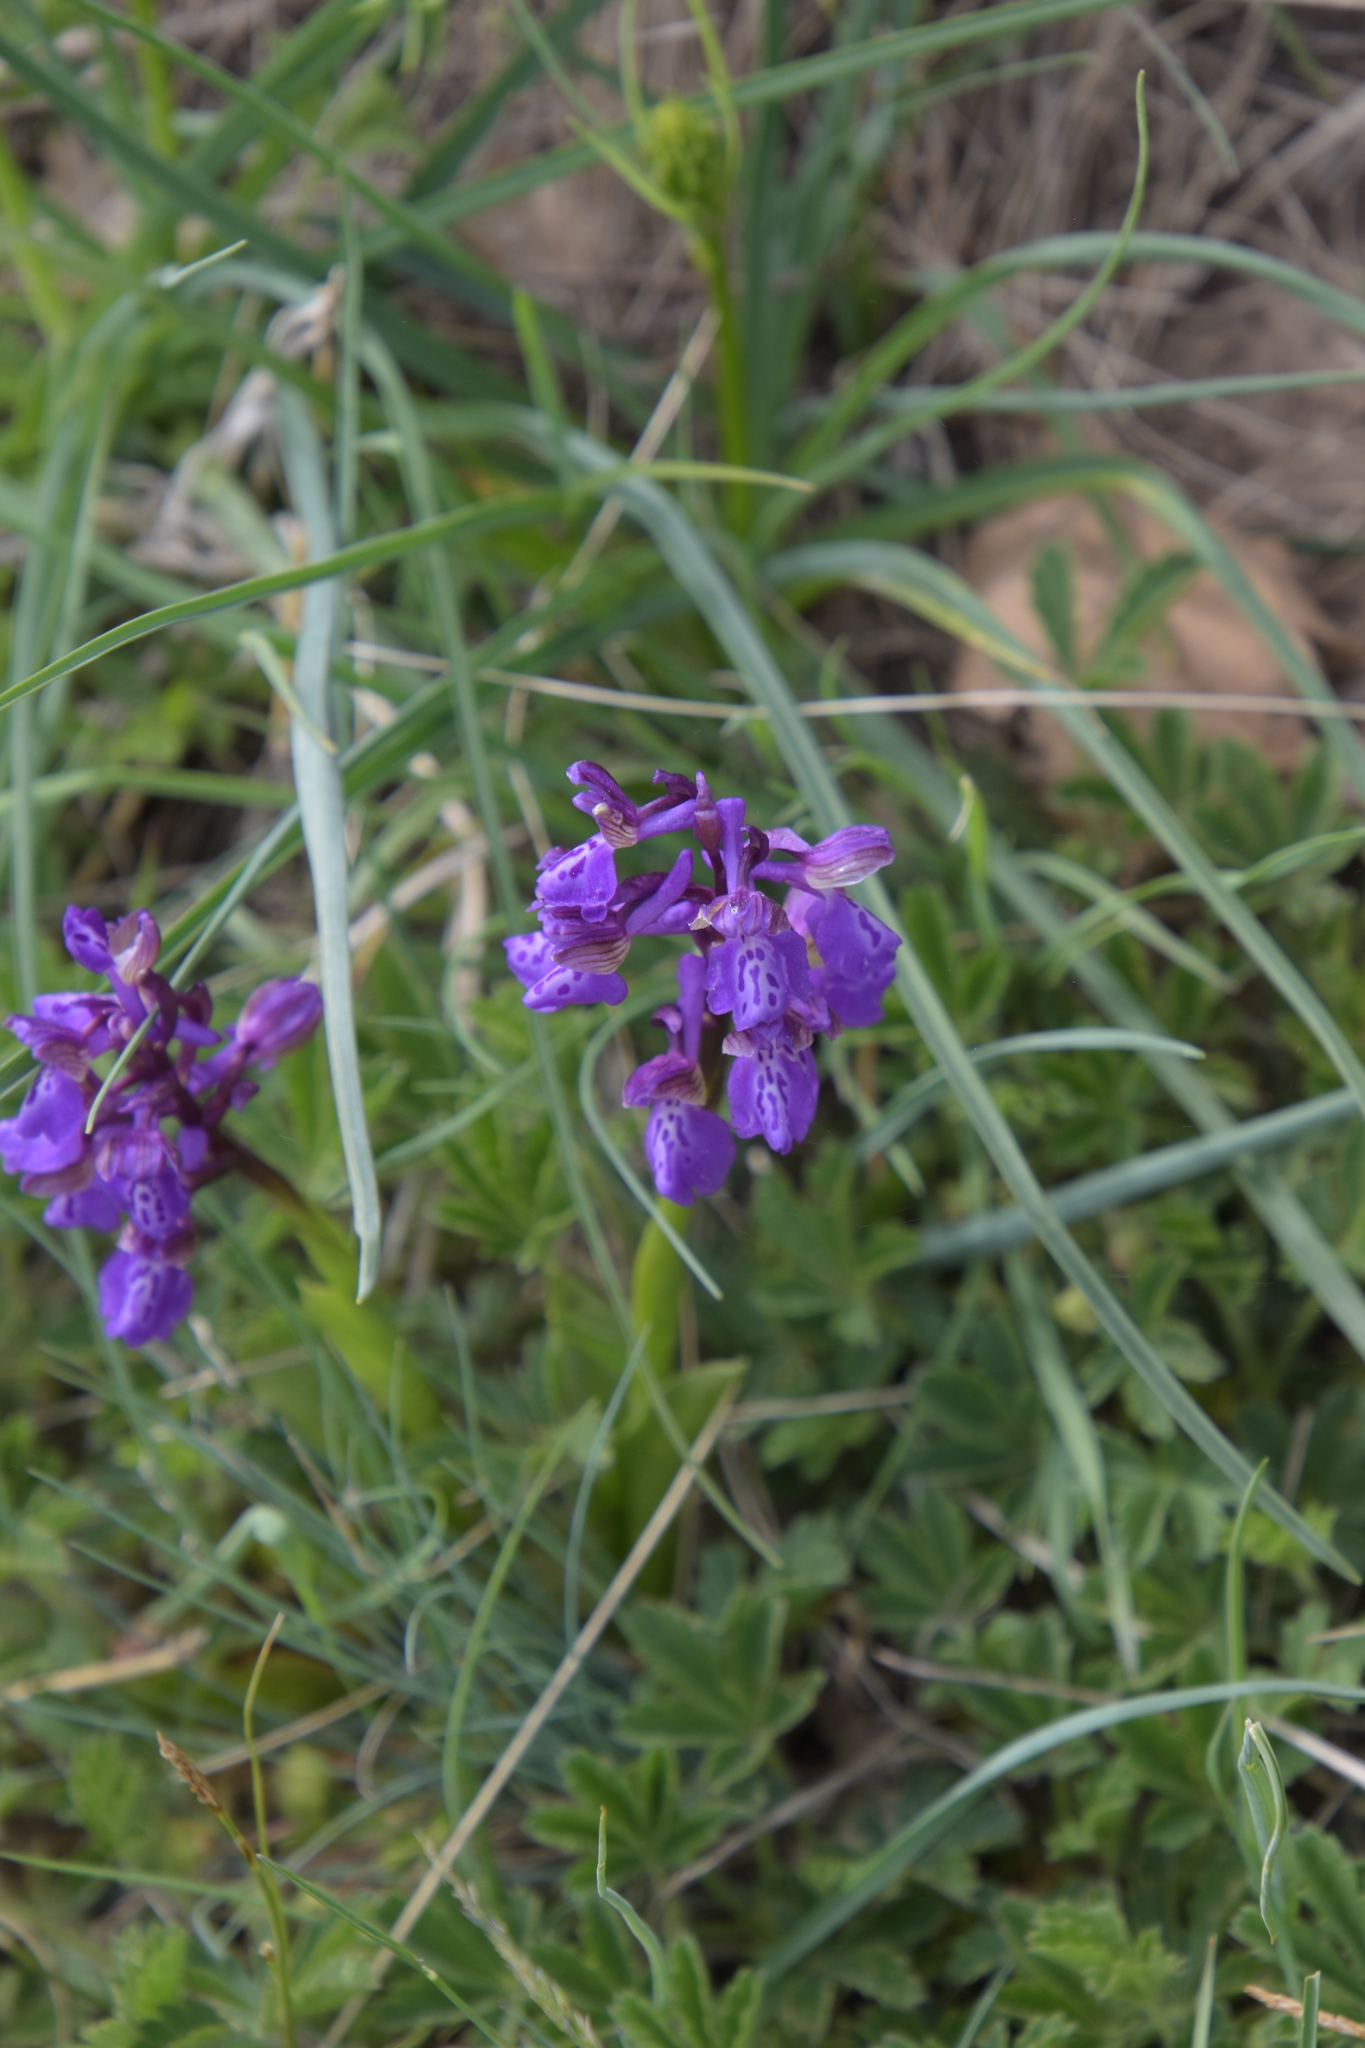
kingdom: Plantae
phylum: Tracheophyta
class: Liliopsida
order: Asparagales
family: Orchidaceae
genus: Anacamptis
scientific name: Anacamptis morio
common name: Green-winged orchid
